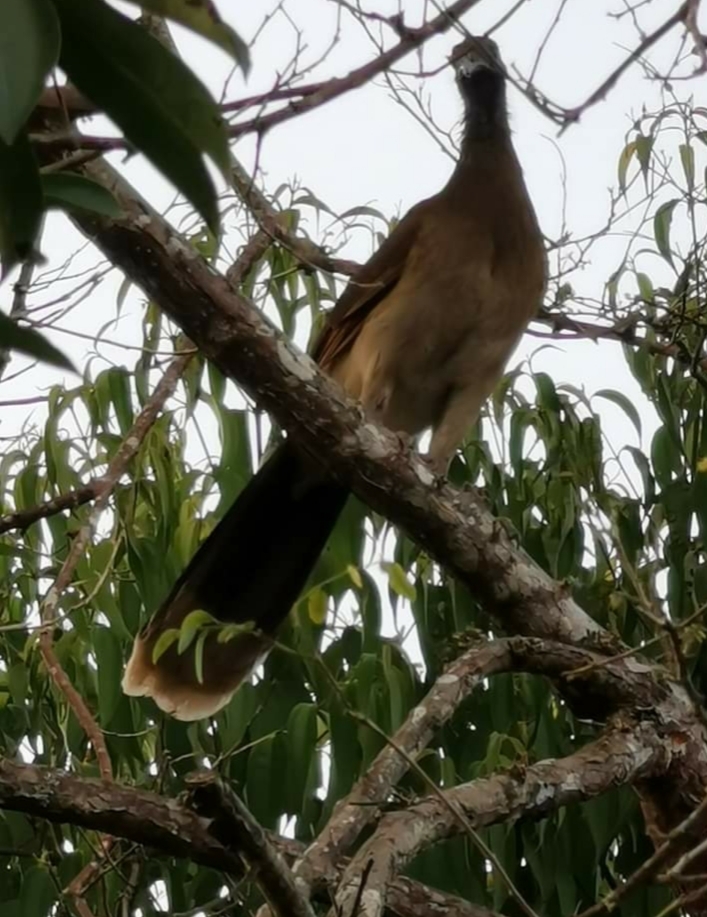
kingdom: Animalia
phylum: Chordata
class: Aves
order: Galliformes
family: Cracidae
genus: Ortalis
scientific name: Ortalis cinereiceps
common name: Grey-headed chachalaca
